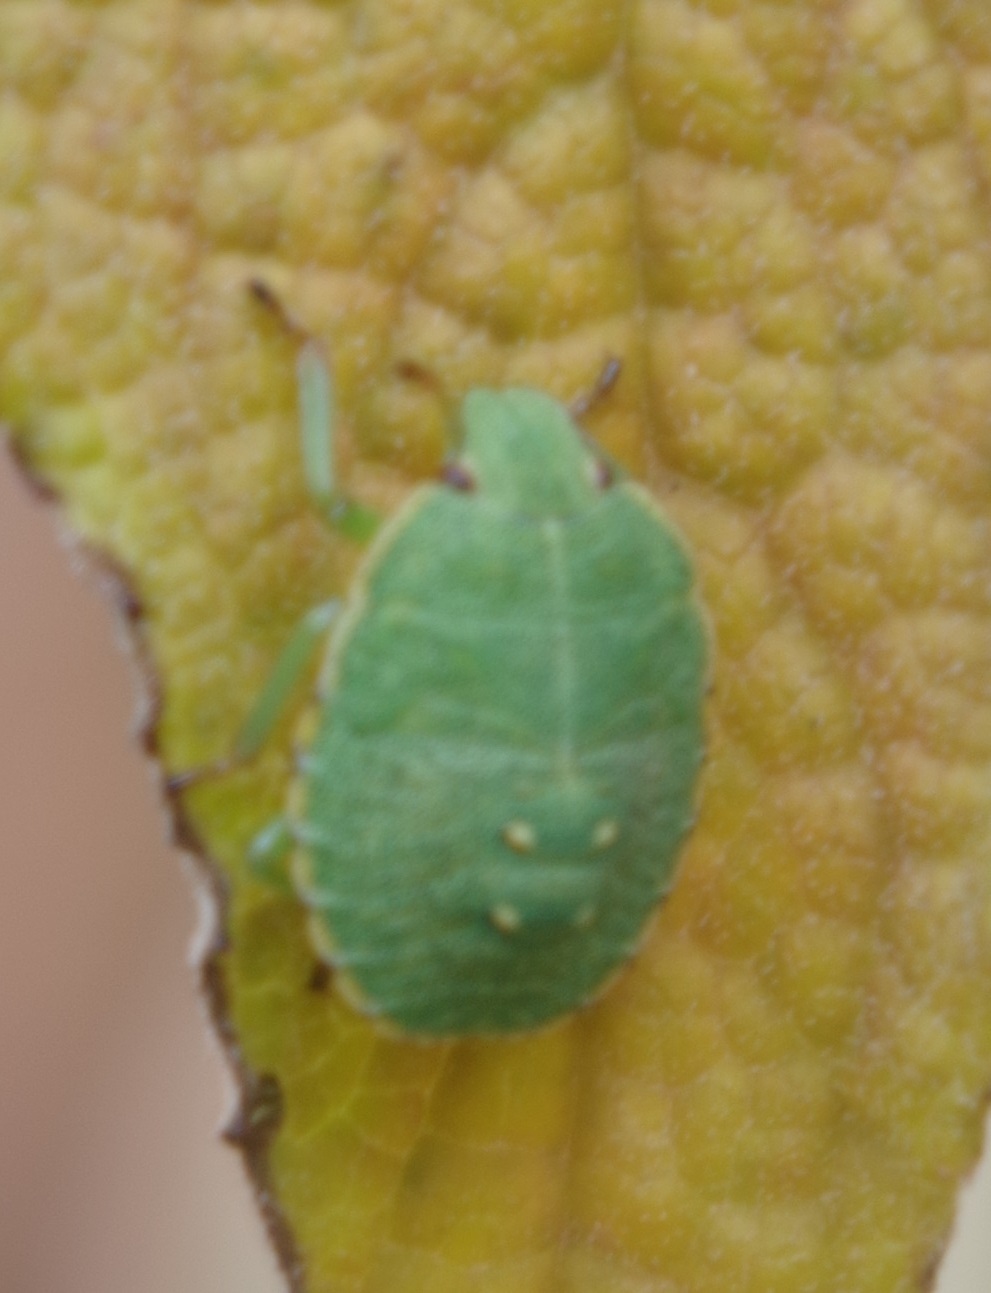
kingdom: Animalia
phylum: Arthropoda
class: Insecta
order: Hemiptera
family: Pentatomidae
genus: Palomena
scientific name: Palomena prasina
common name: Green shieldbug
